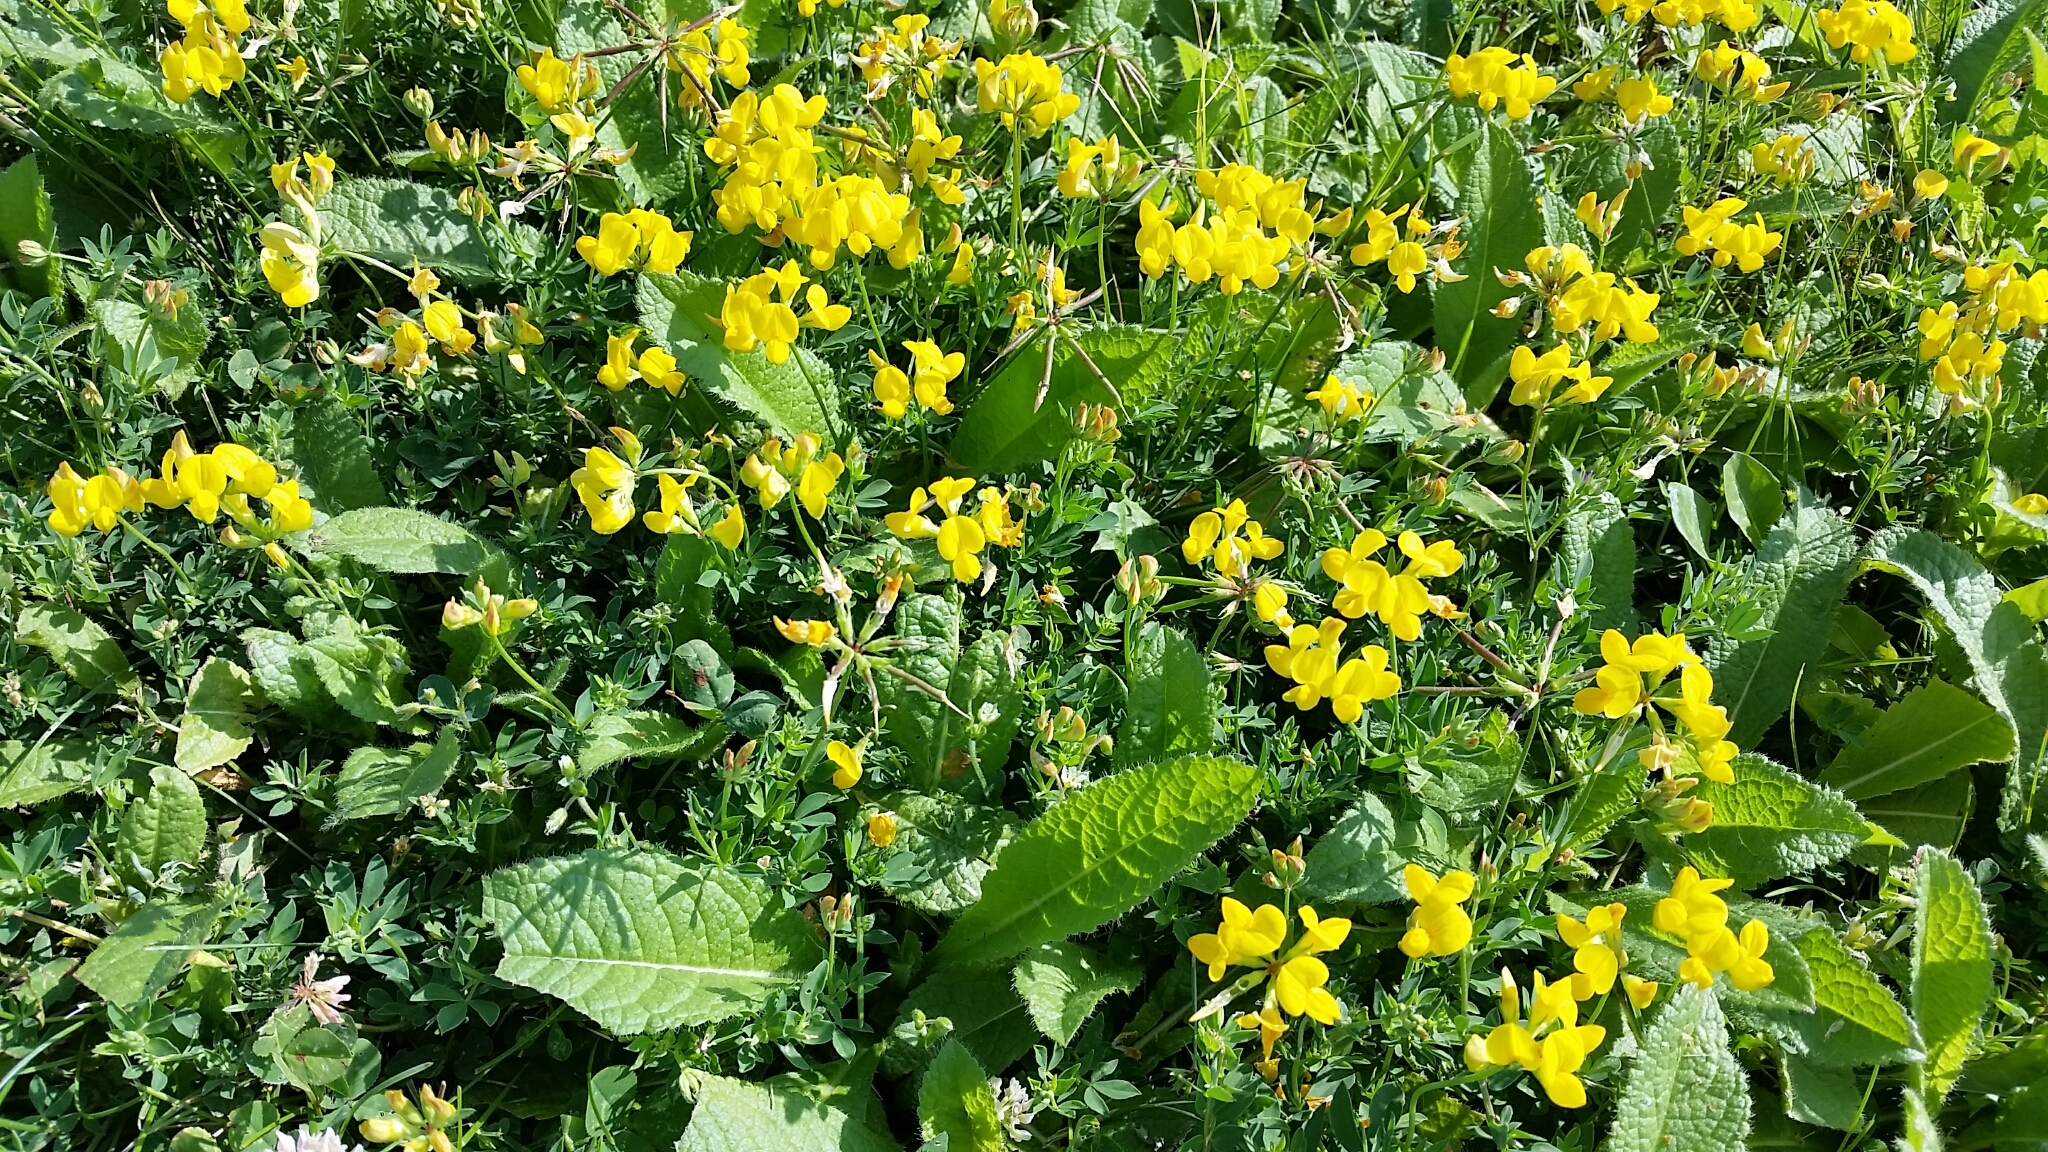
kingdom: Plantae
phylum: Tracheophyta
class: Magnoliopsida
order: Fabales
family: Fabaceae
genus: Lotus
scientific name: Lotus corniculatus
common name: Common bird's-foot-trefoil
